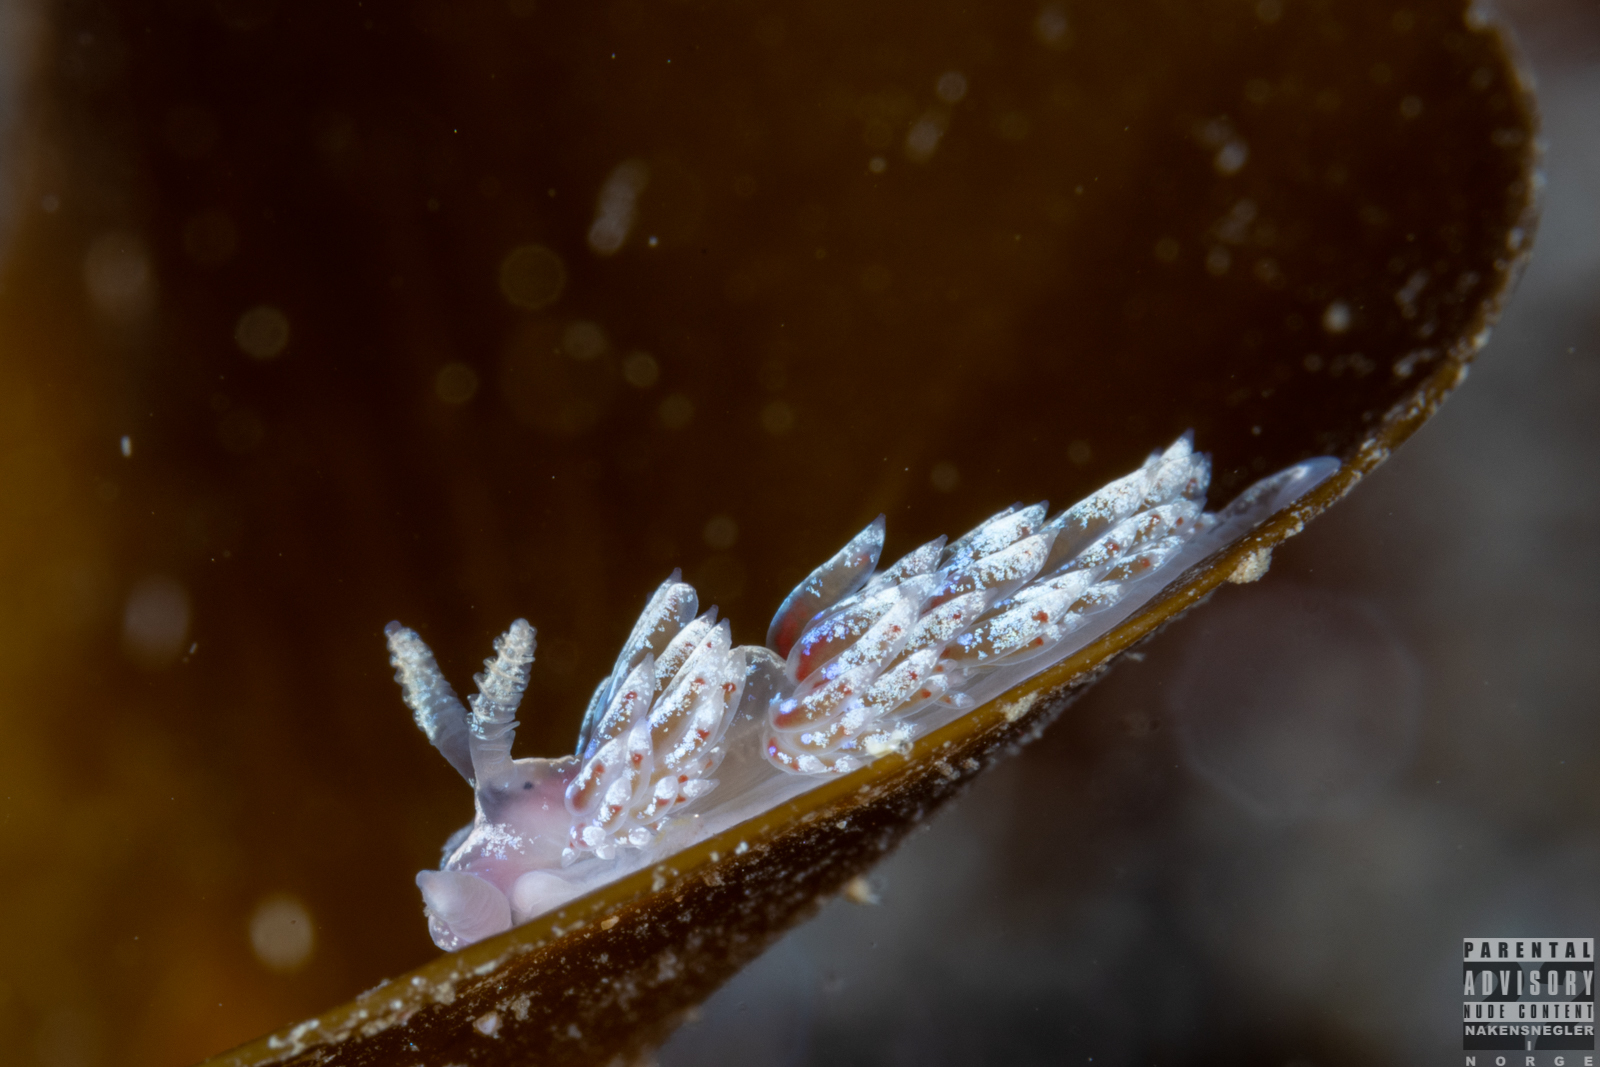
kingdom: Animalia
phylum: Mollusca
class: Gastropoda
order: Nudibranchia
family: Facelinidae
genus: Facelina
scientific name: Facelina auriculata
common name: Slender facelina
